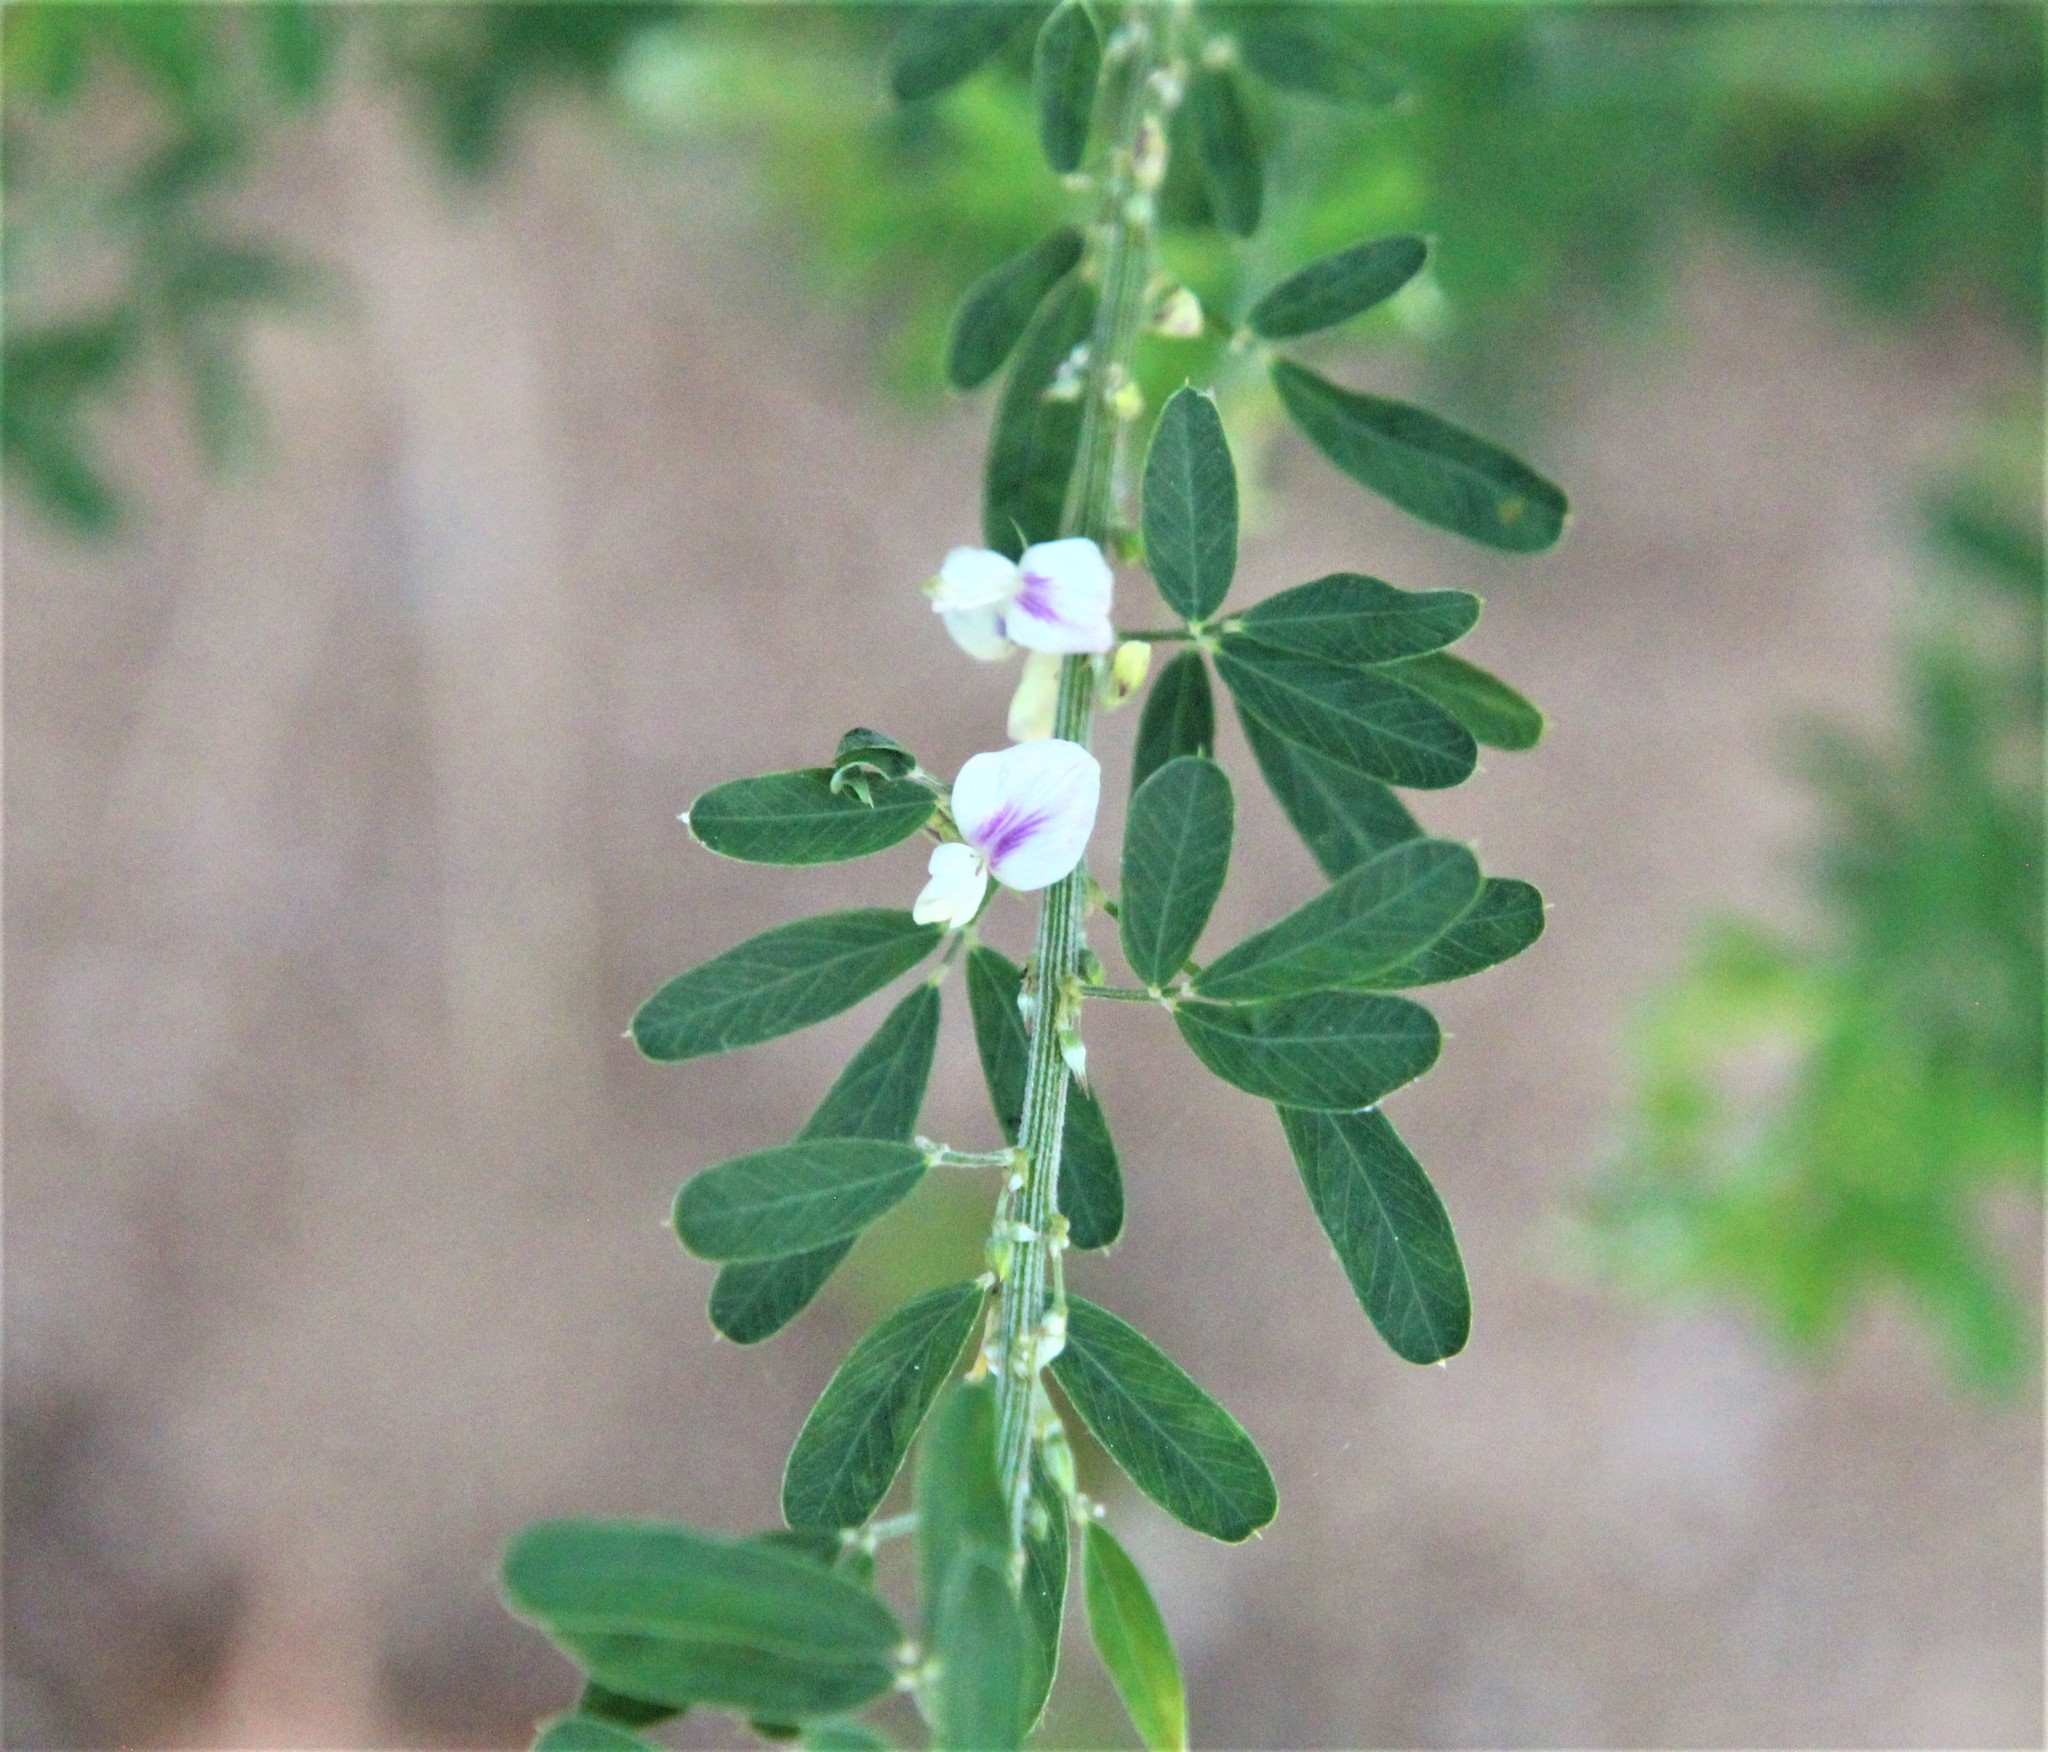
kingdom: Plantae
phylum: Tracheophyta
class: Magnoliopsida
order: Fabales
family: Fabaceae
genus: Lespedeza
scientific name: Lespedeza cuneata
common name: Chinese bush-clover
